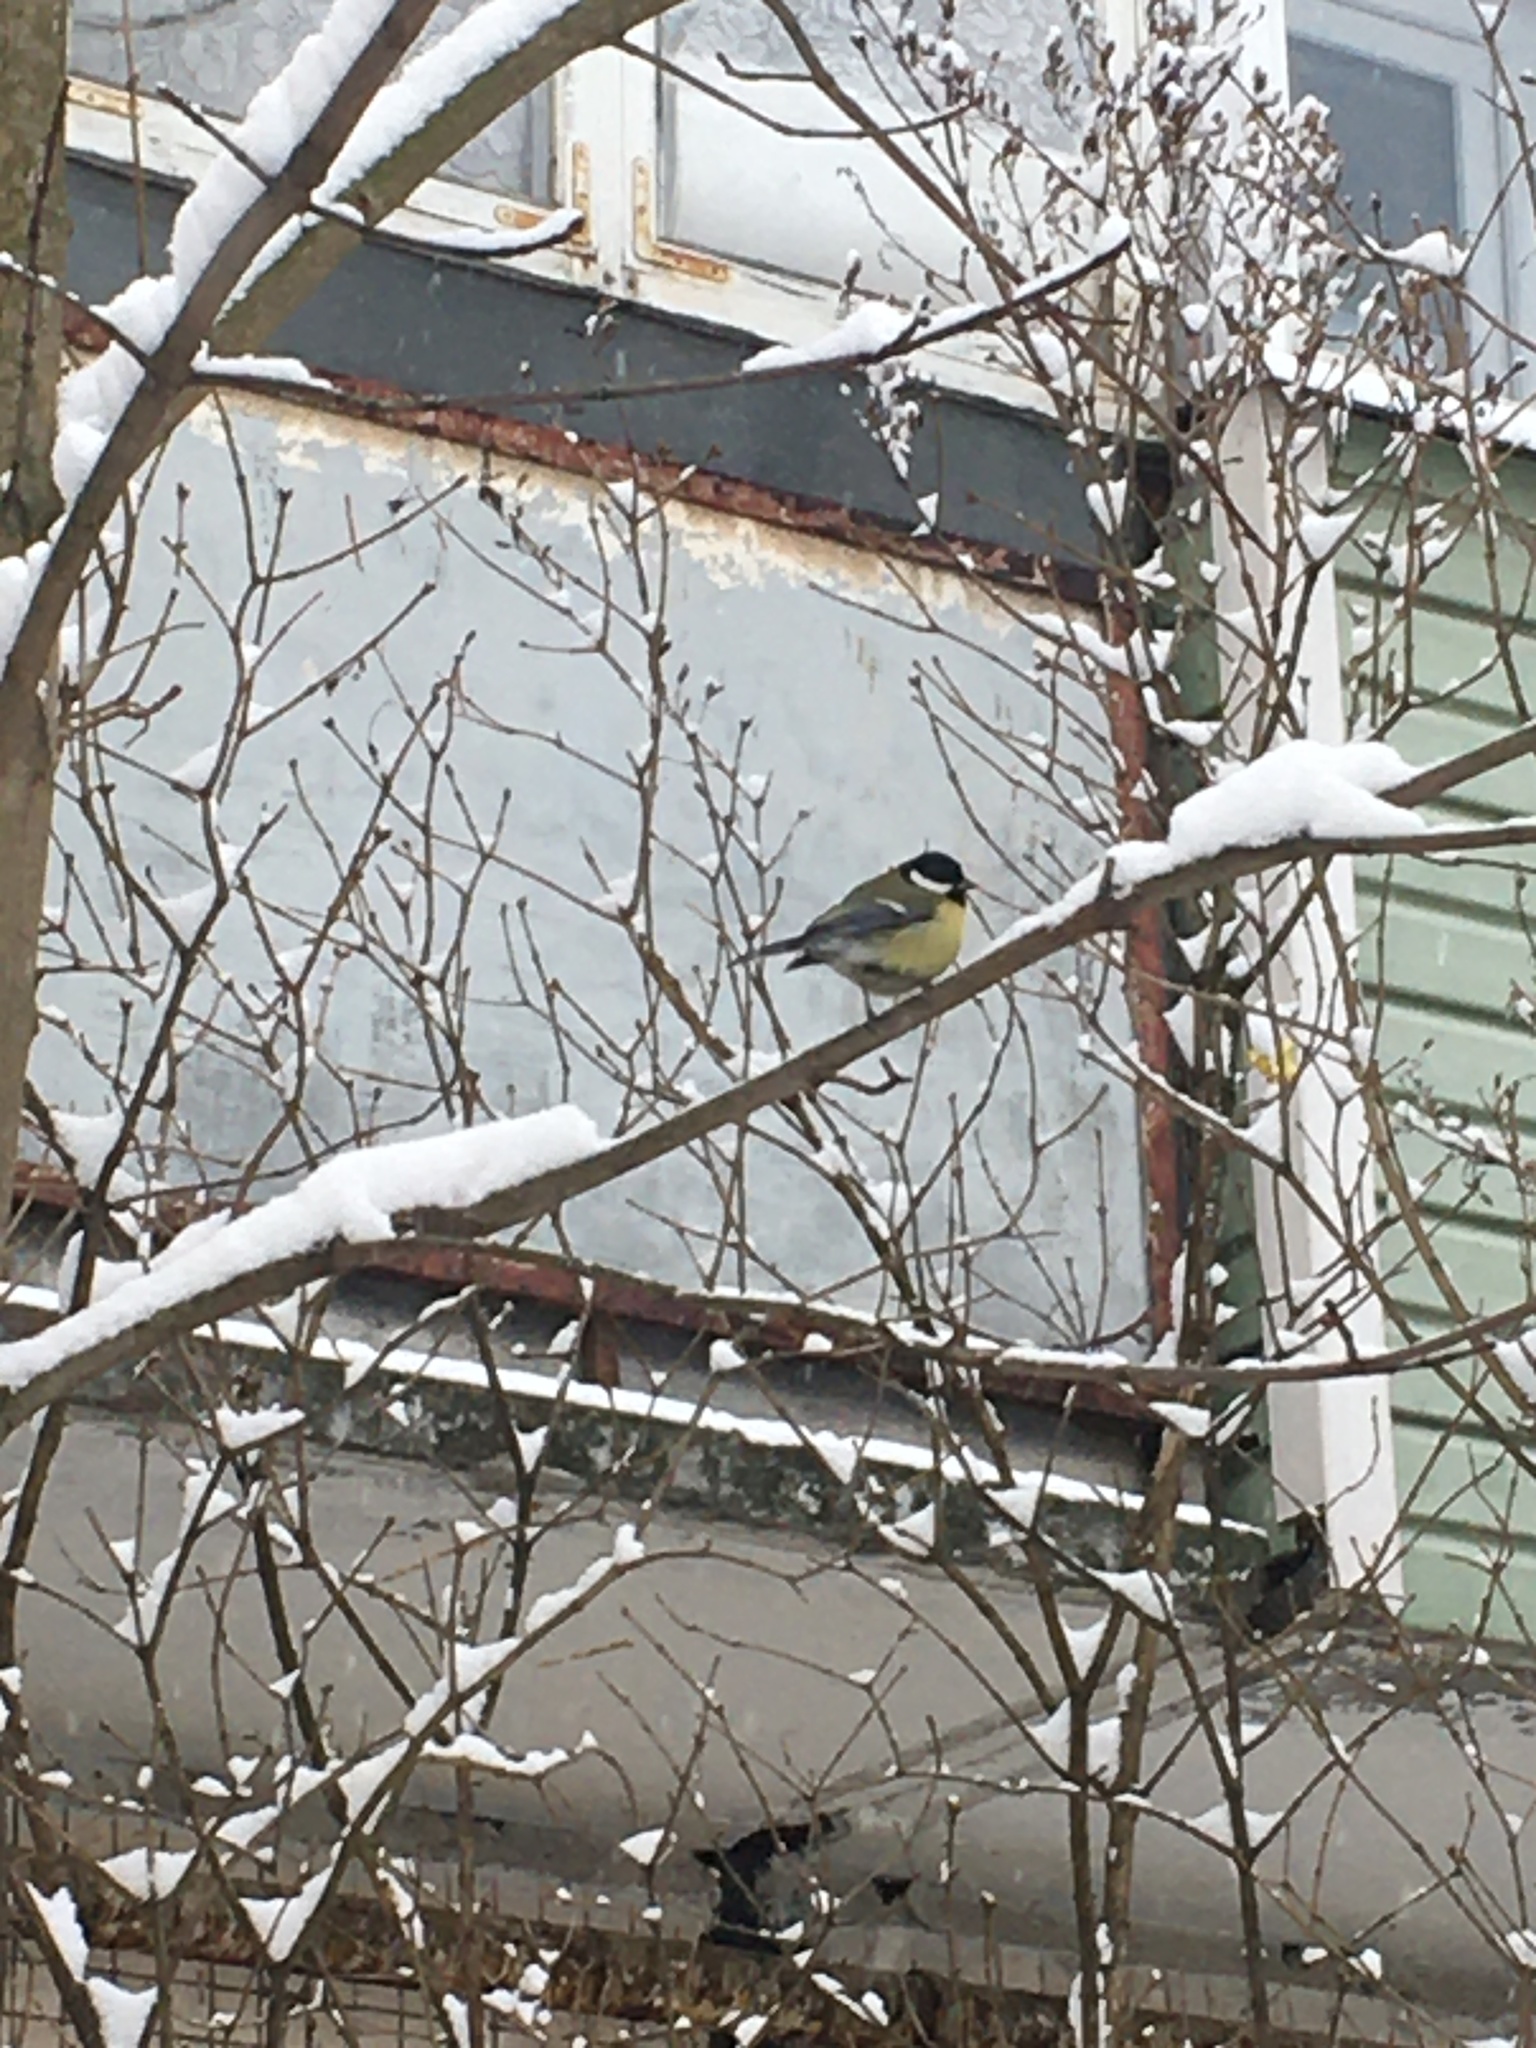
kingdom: Animalia
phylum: Chordata
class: Aves
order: Passeriformes
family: Paridae
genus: Parus
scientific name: Parus major
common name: Great tit
